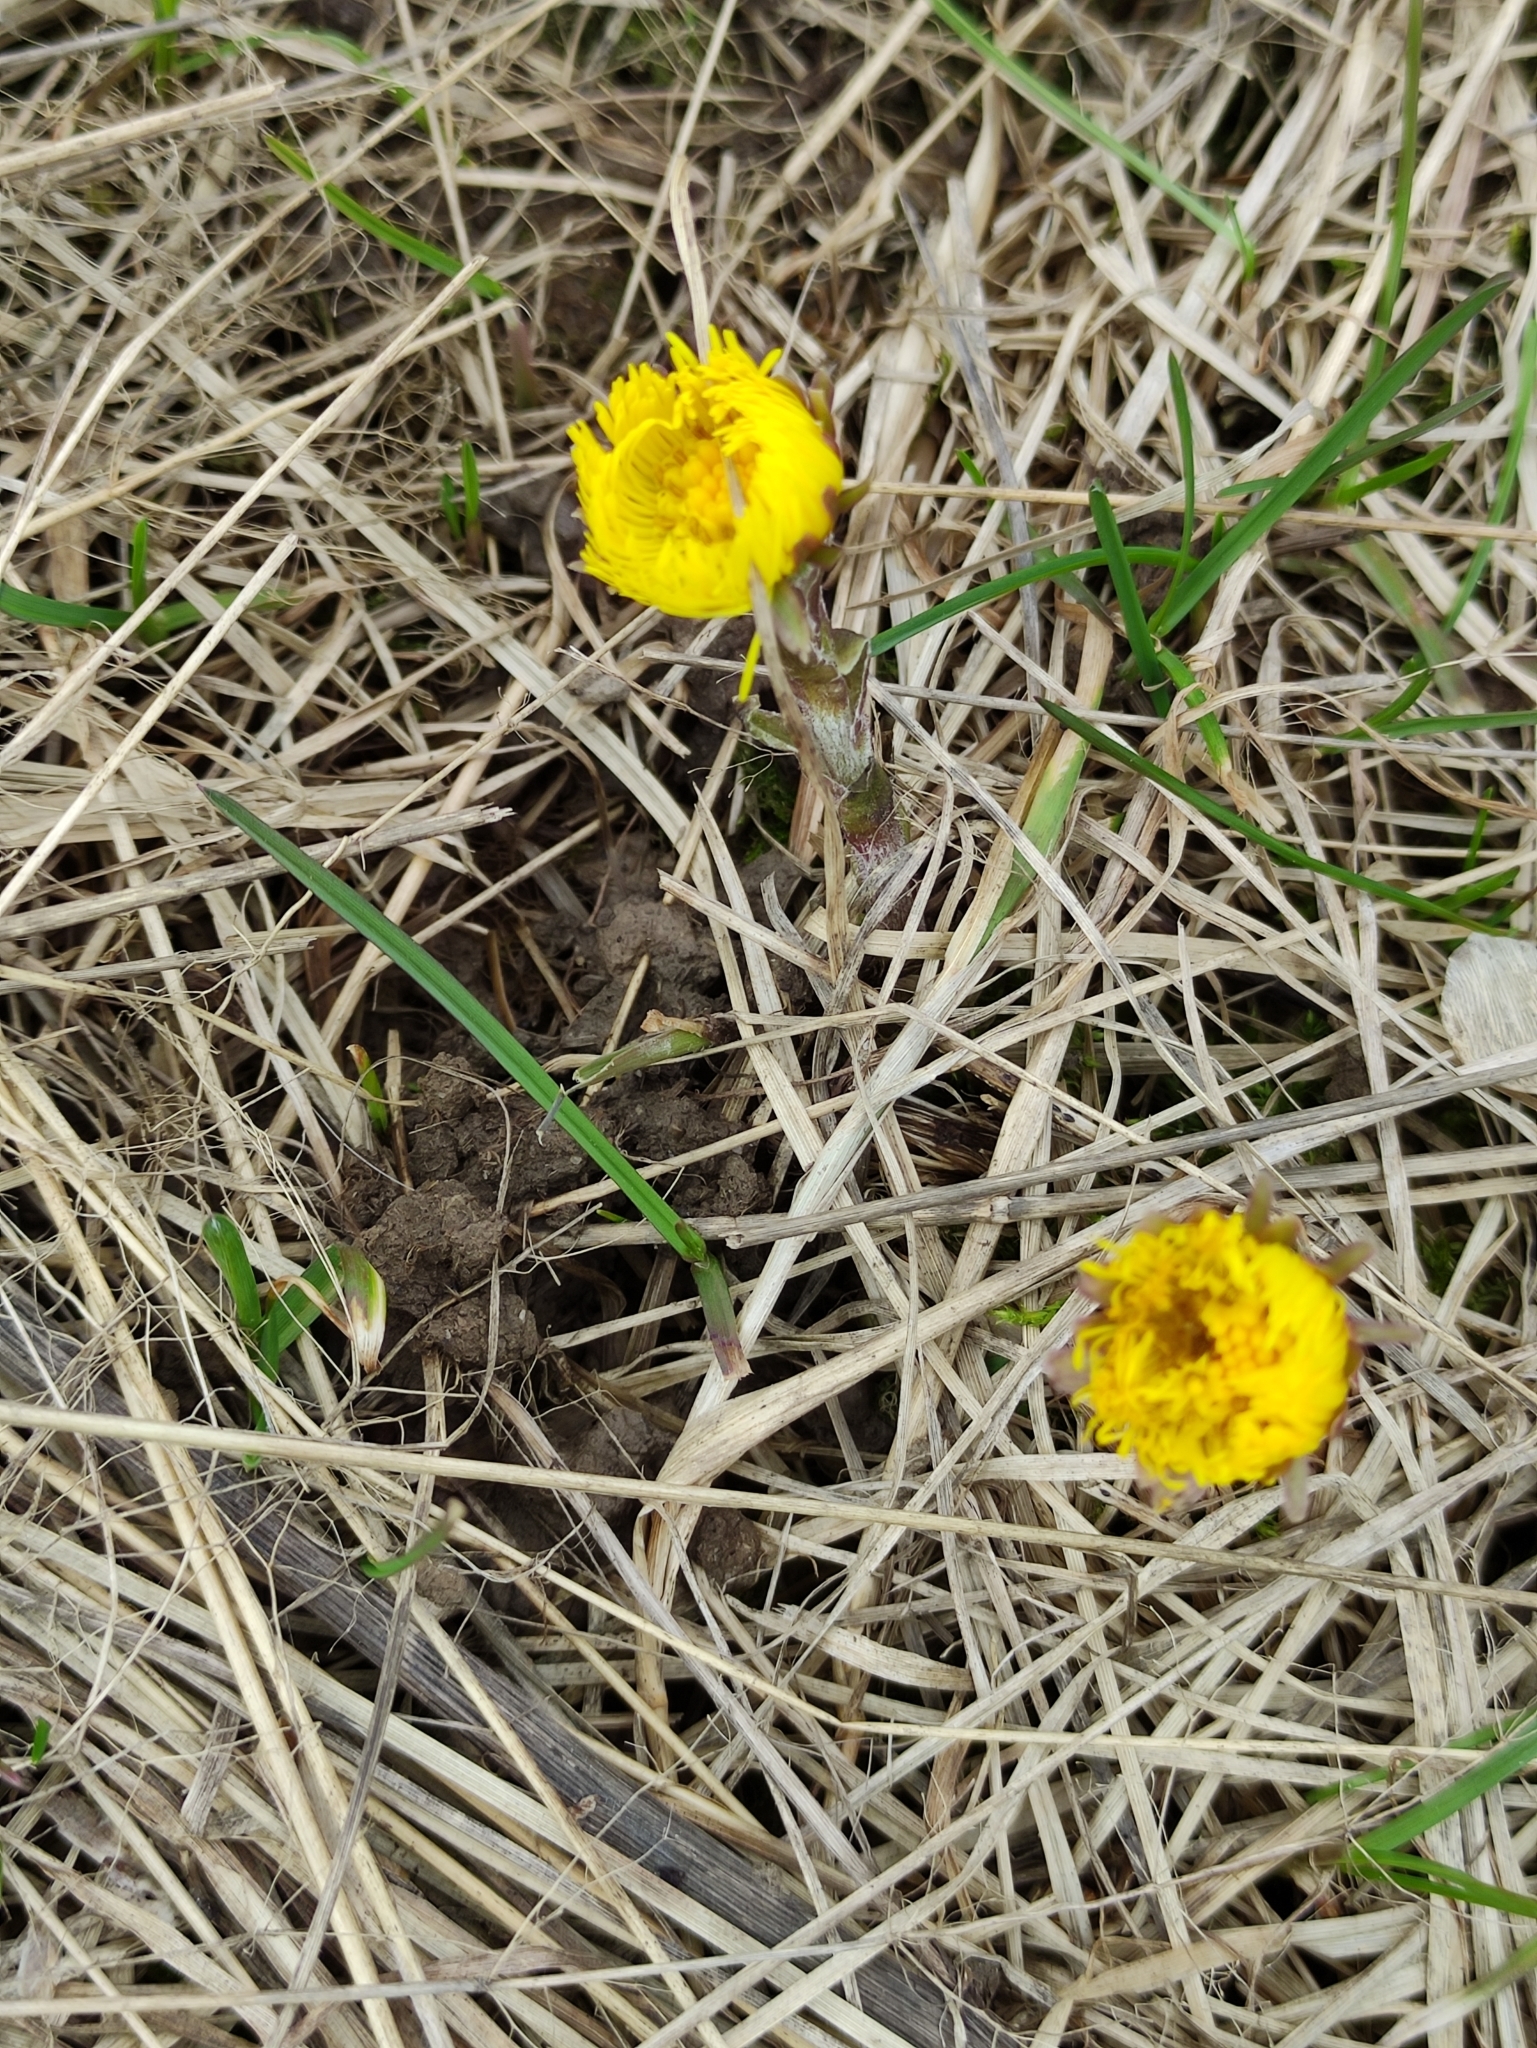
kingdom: Plantae
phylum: Tracheophyta
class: Magnoliopsida
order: Asterales
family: Asteraceae
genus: Tussilago
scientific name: Tussilago farfara
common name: Coltsfoot
